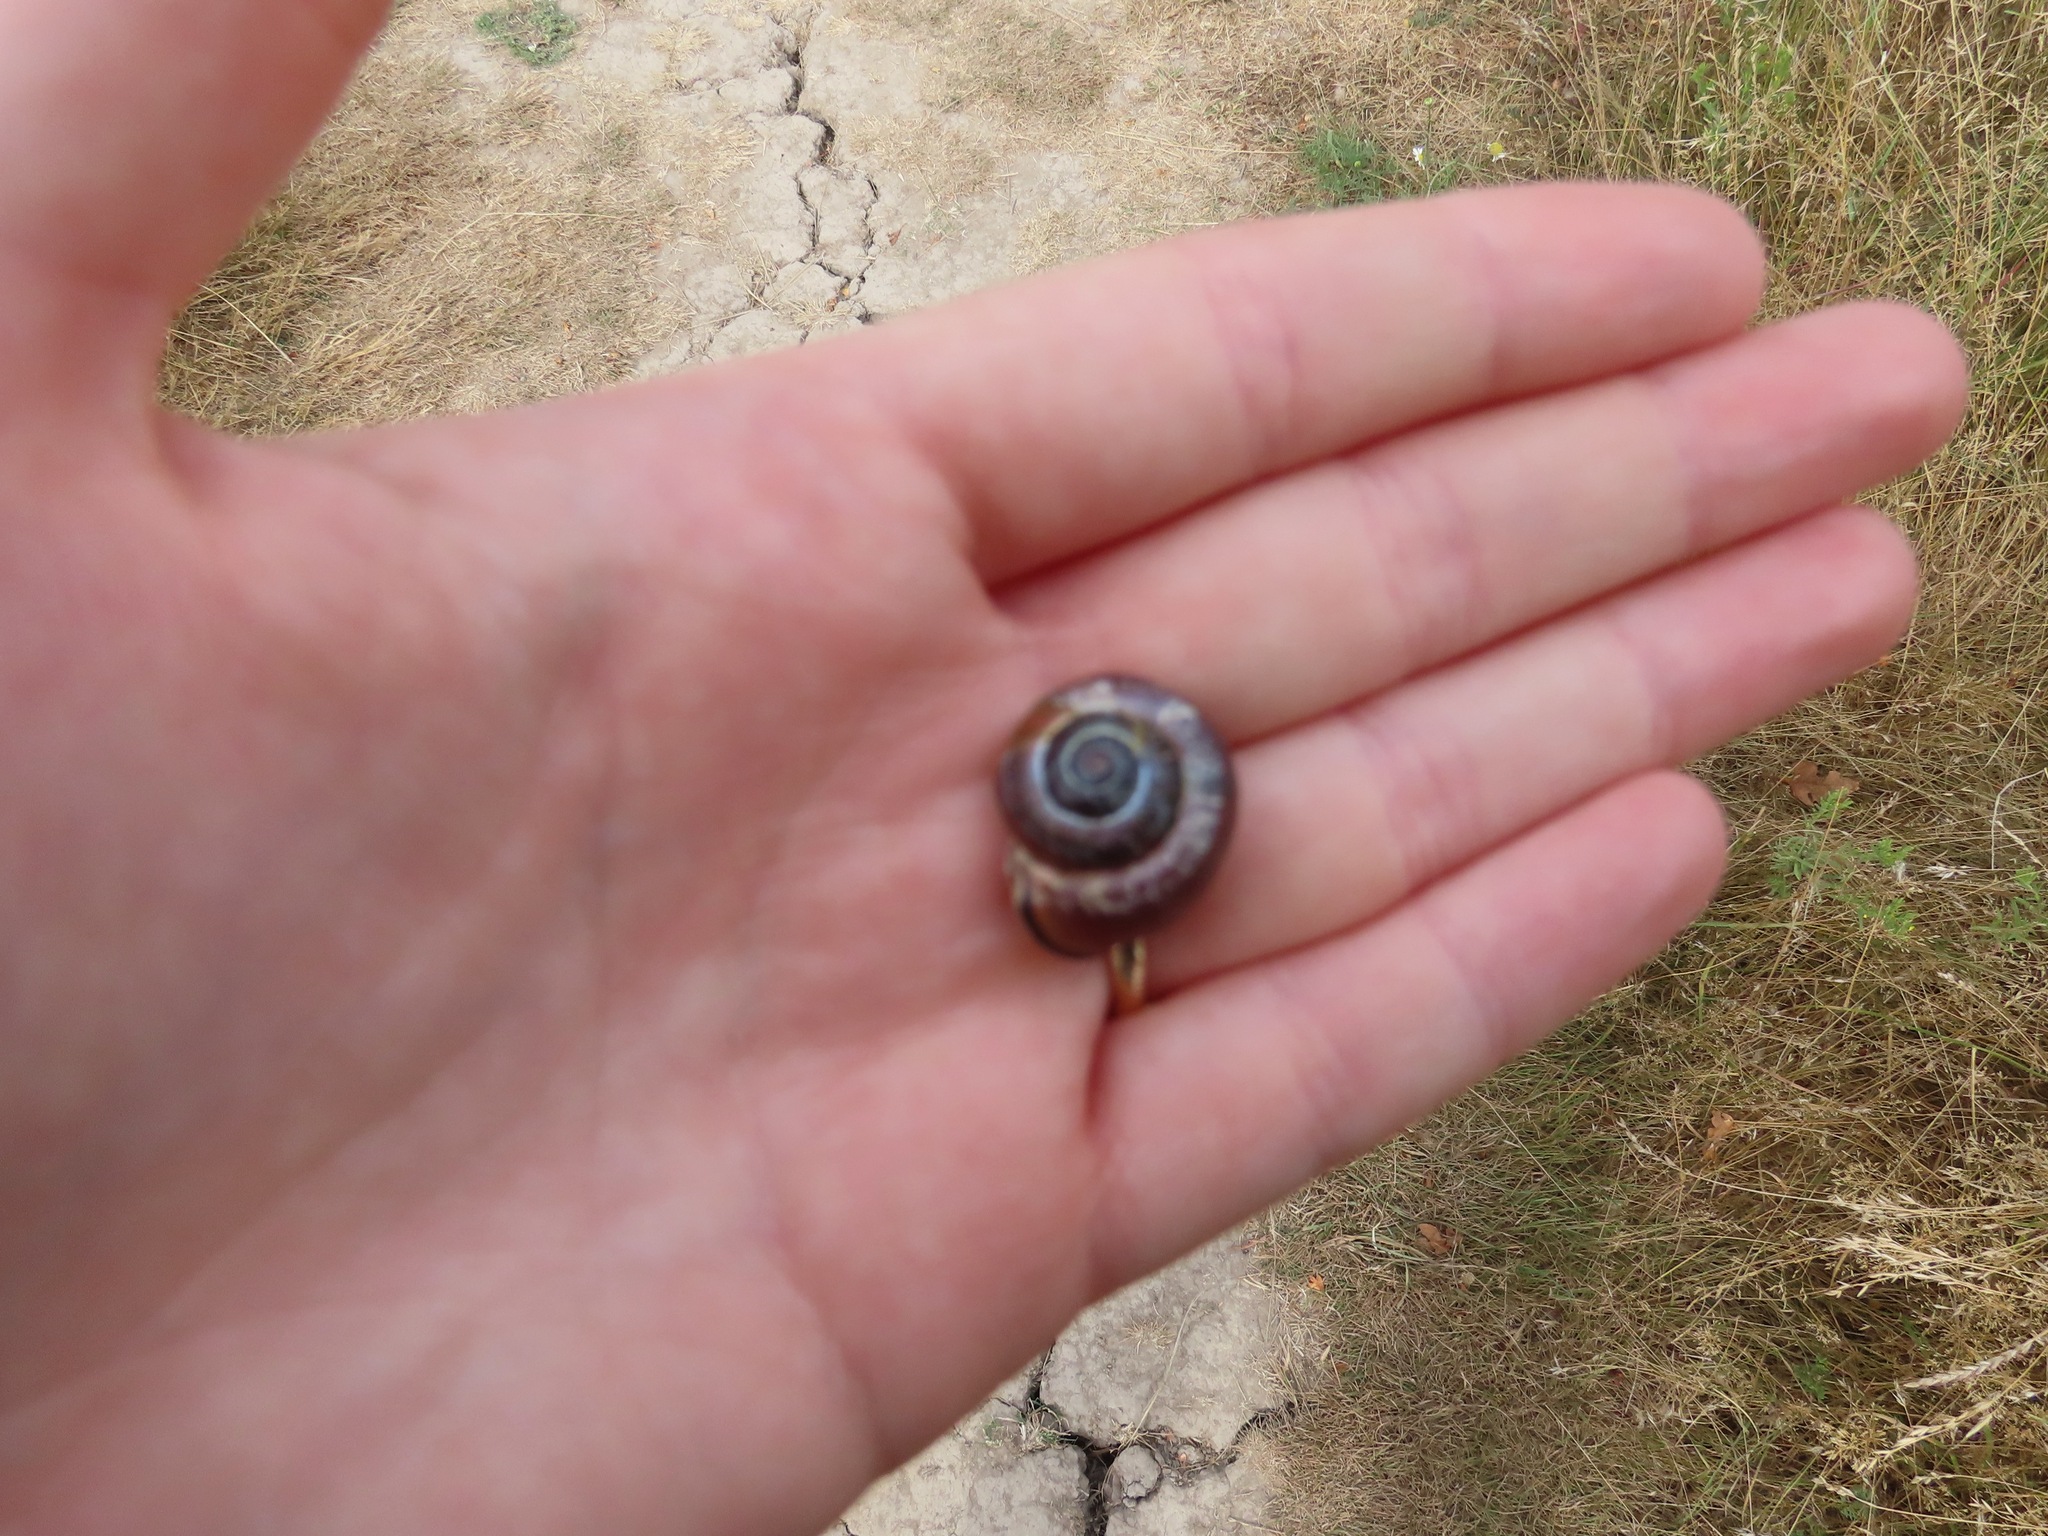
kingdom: Animalia
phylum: Mollusca
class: Gastropoda
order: Stylommatophora
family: Helicidae
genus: Cepaea
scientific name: Cepaea nemoralis
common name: Grovesnail
